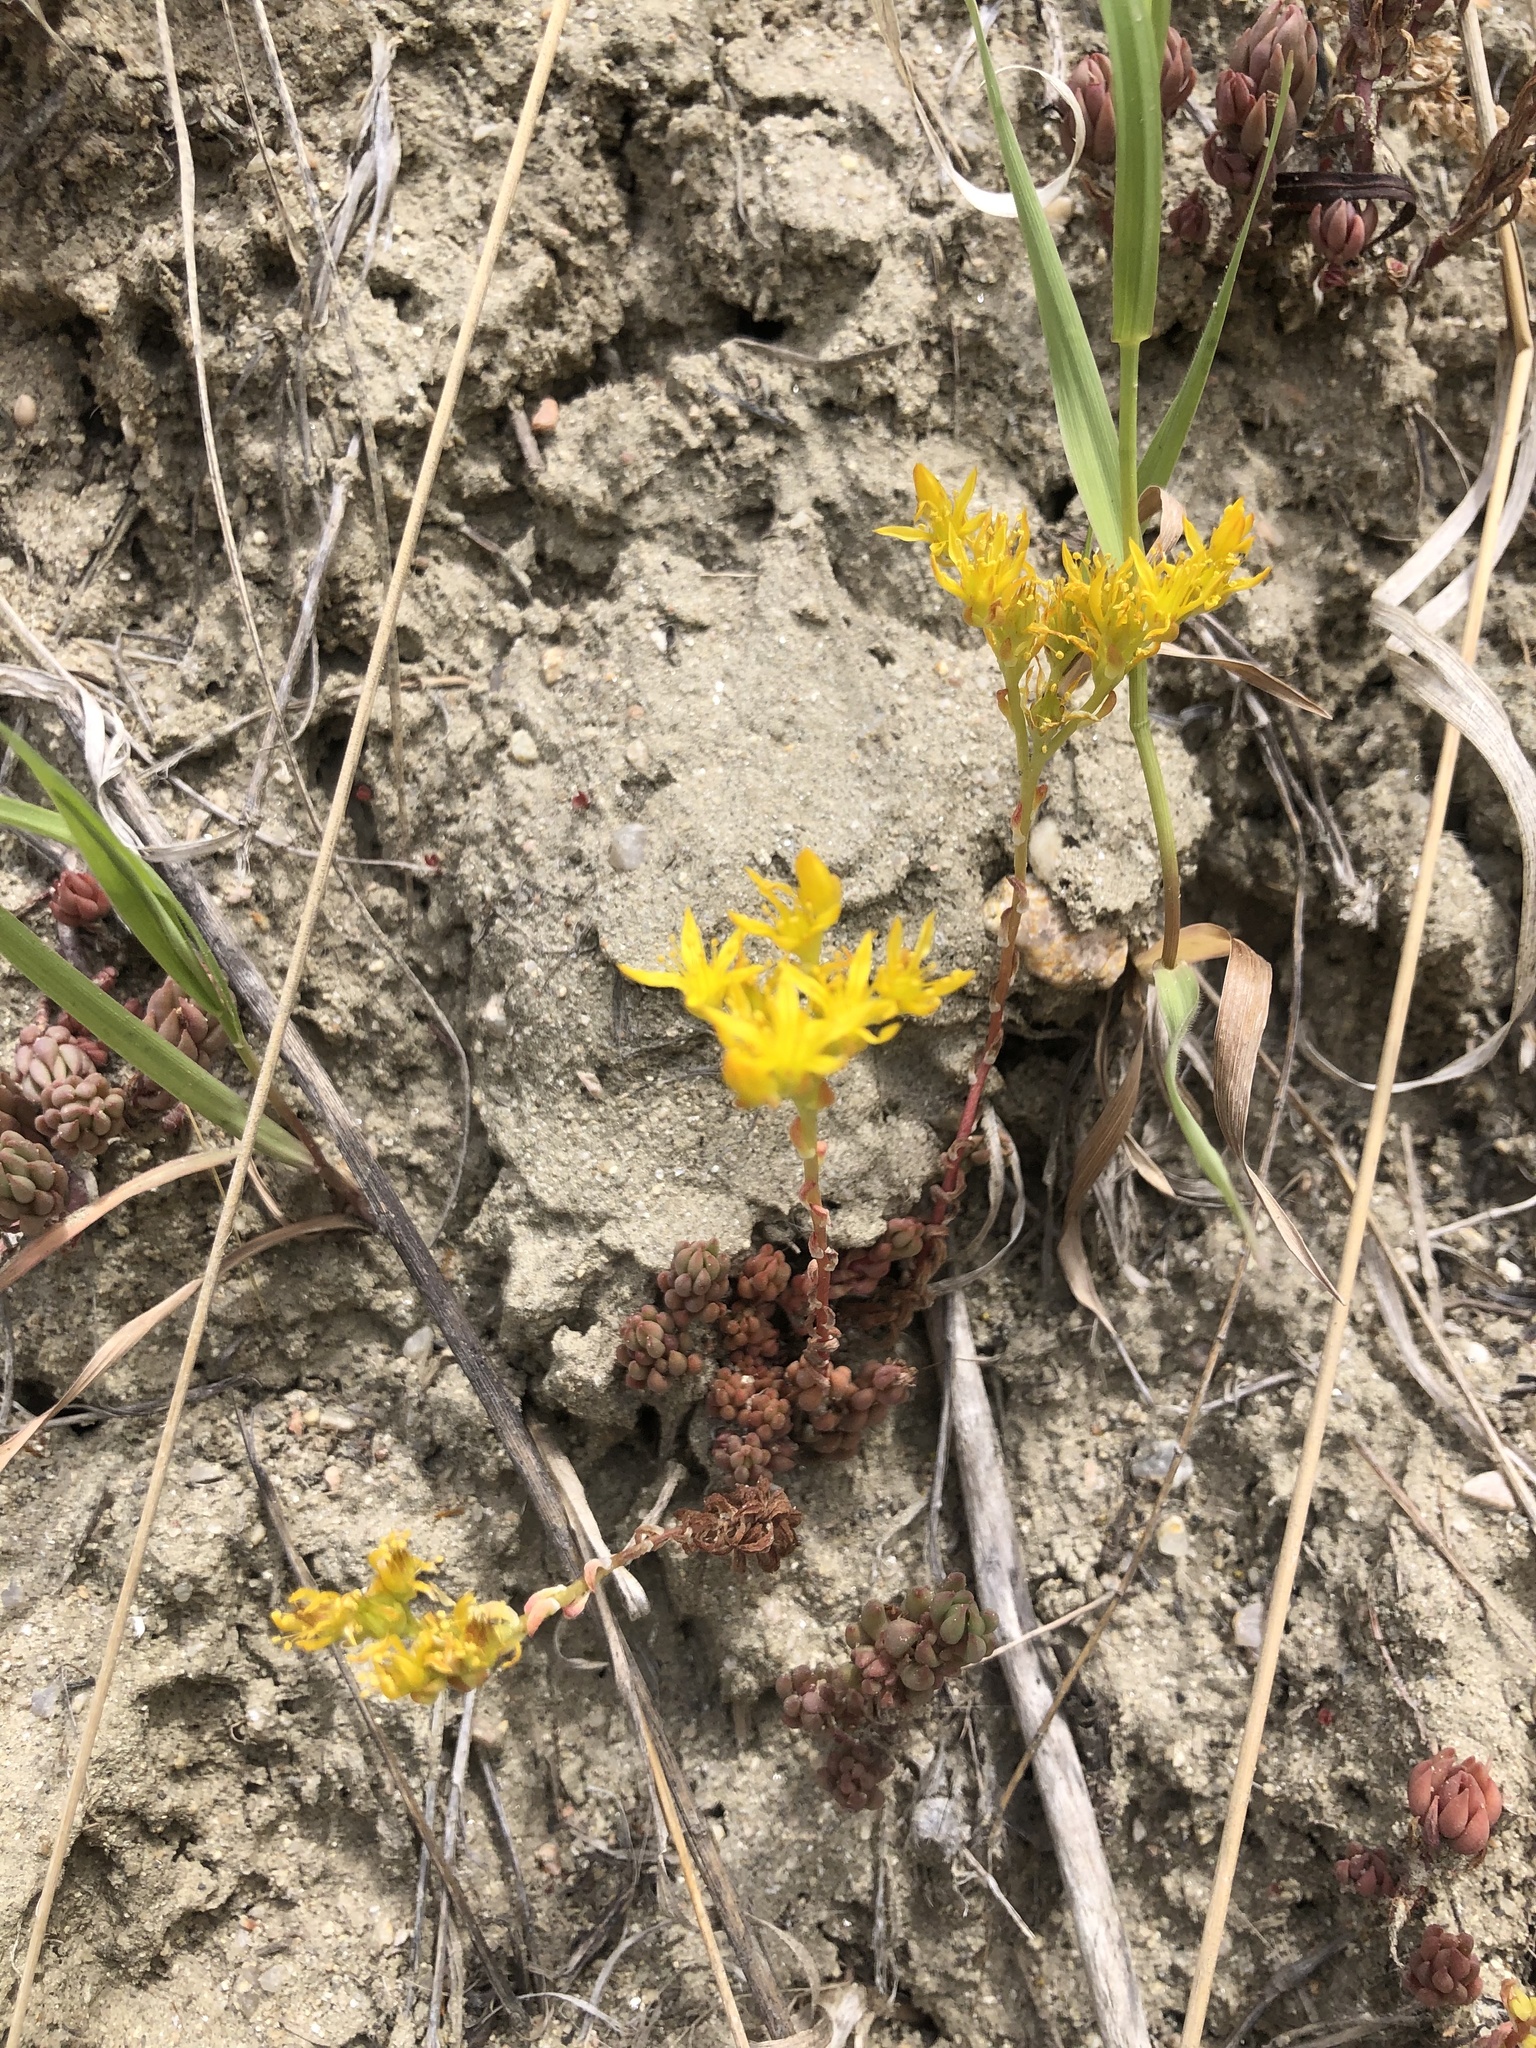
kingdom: Plantae
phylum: Tracheophyta
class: Magnoliopsida
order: Saxifragales
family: Crassulaceae
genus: Sedum
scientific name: Sedum lanceolatum
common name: Common stonecrop
